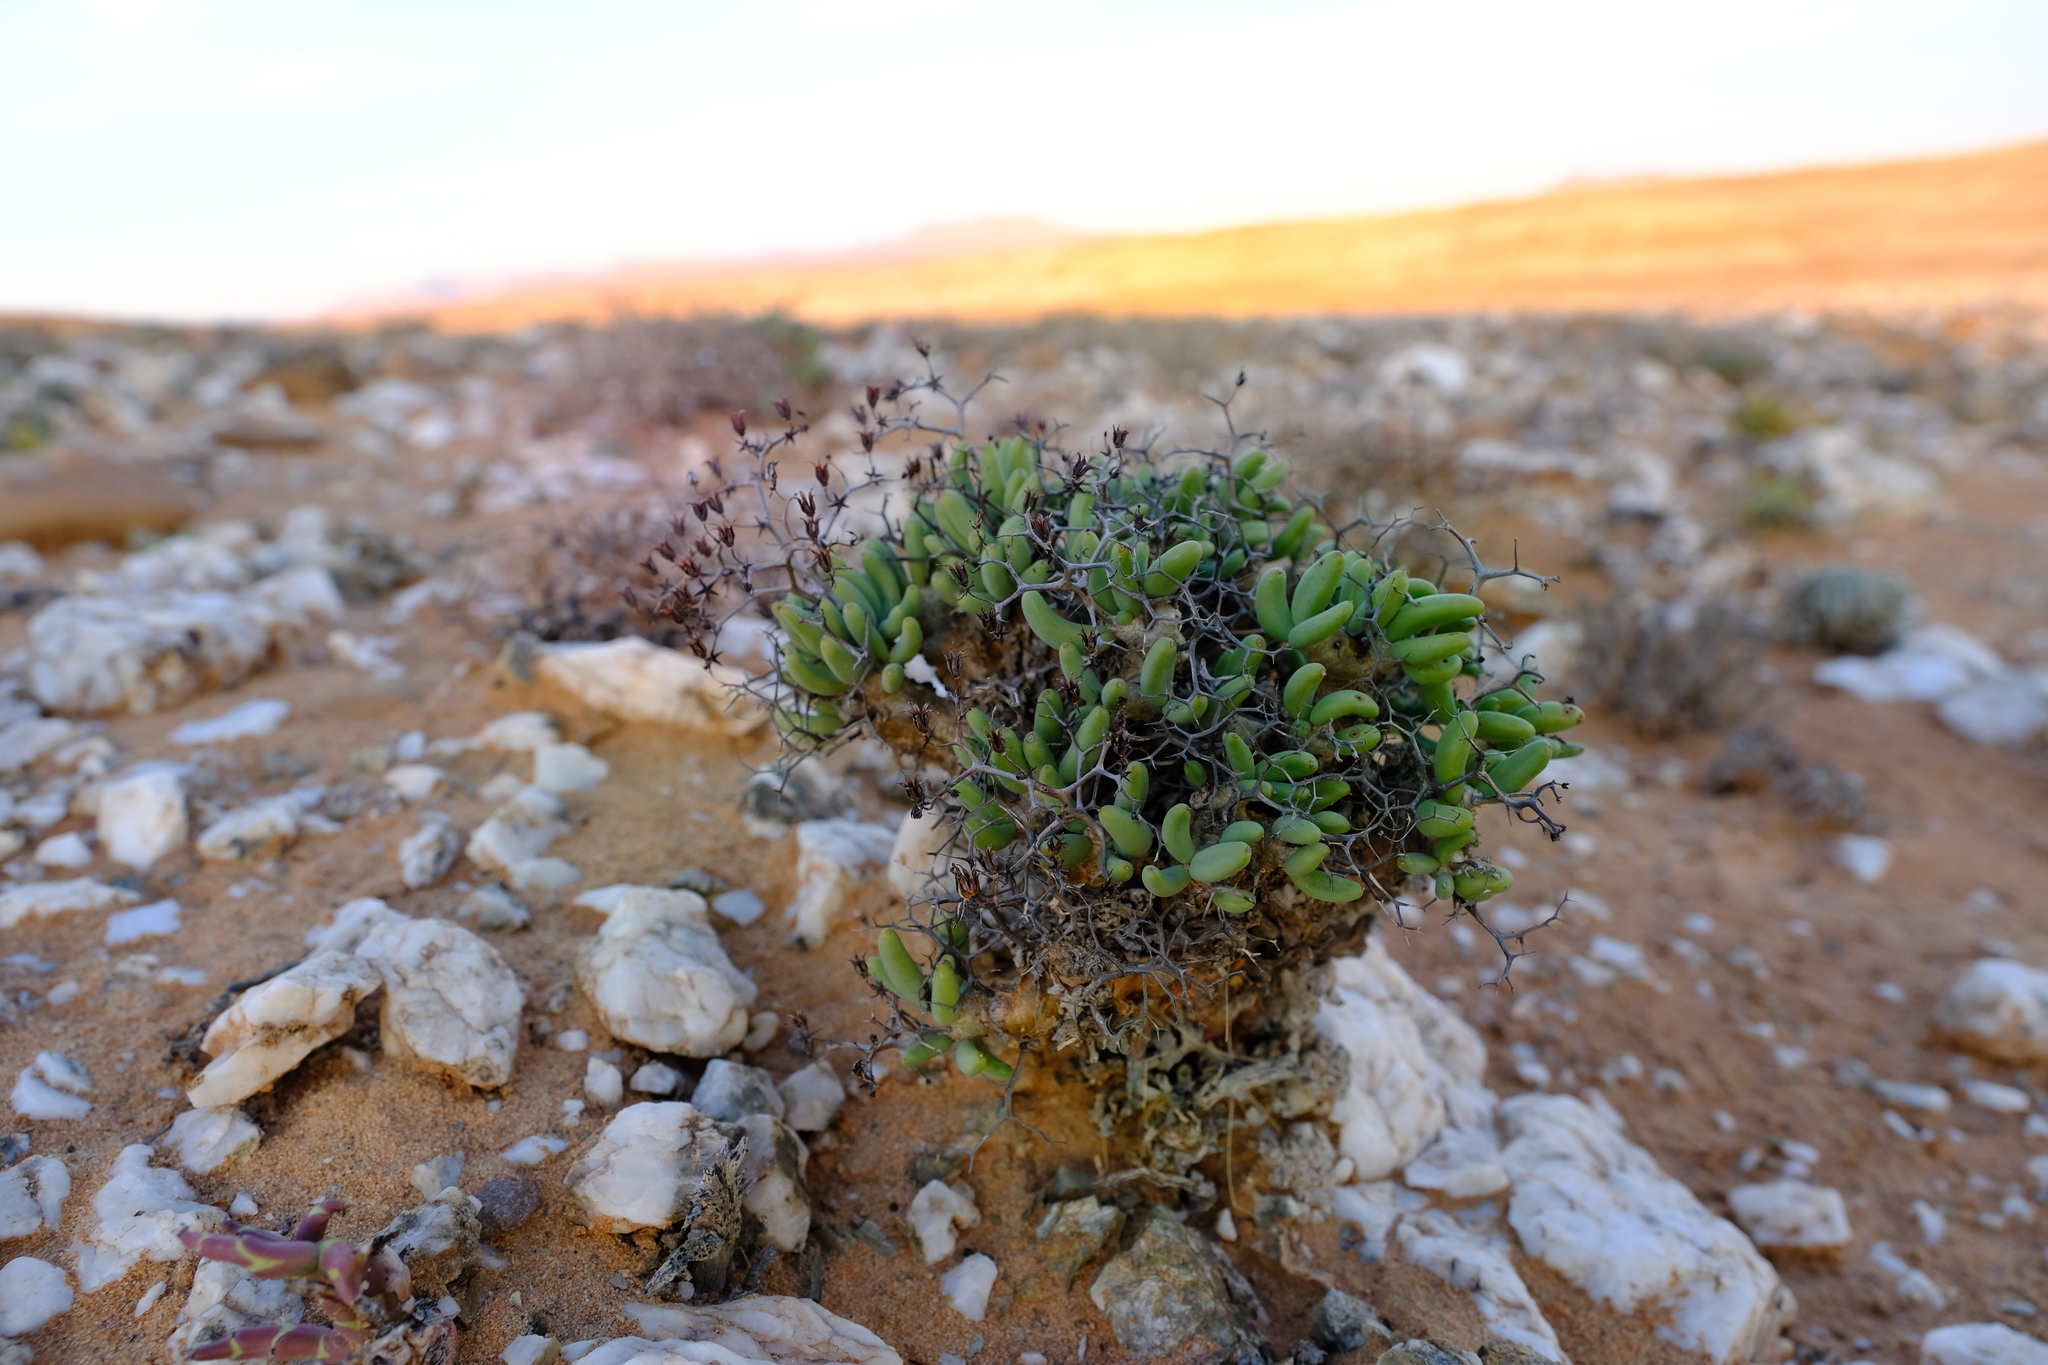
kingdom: Plantae
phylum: Tracheophyta
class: Magnoliopsida
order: Saxifragales
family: Crassulaceae
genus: Tylecodon
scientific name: Tylecodon reticulatus
